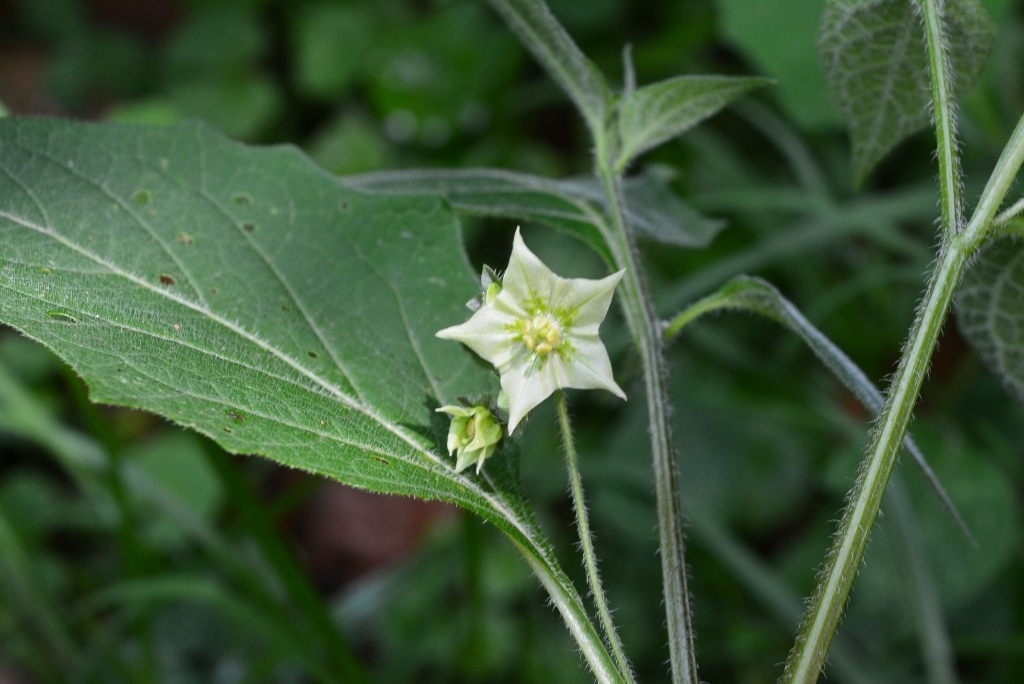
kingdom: Plantae
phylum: Tracheophyta
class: Magnoliopsida
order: Solanales
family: Solanaceae
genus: Jaltomata
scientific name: Jaltomata procumbens
